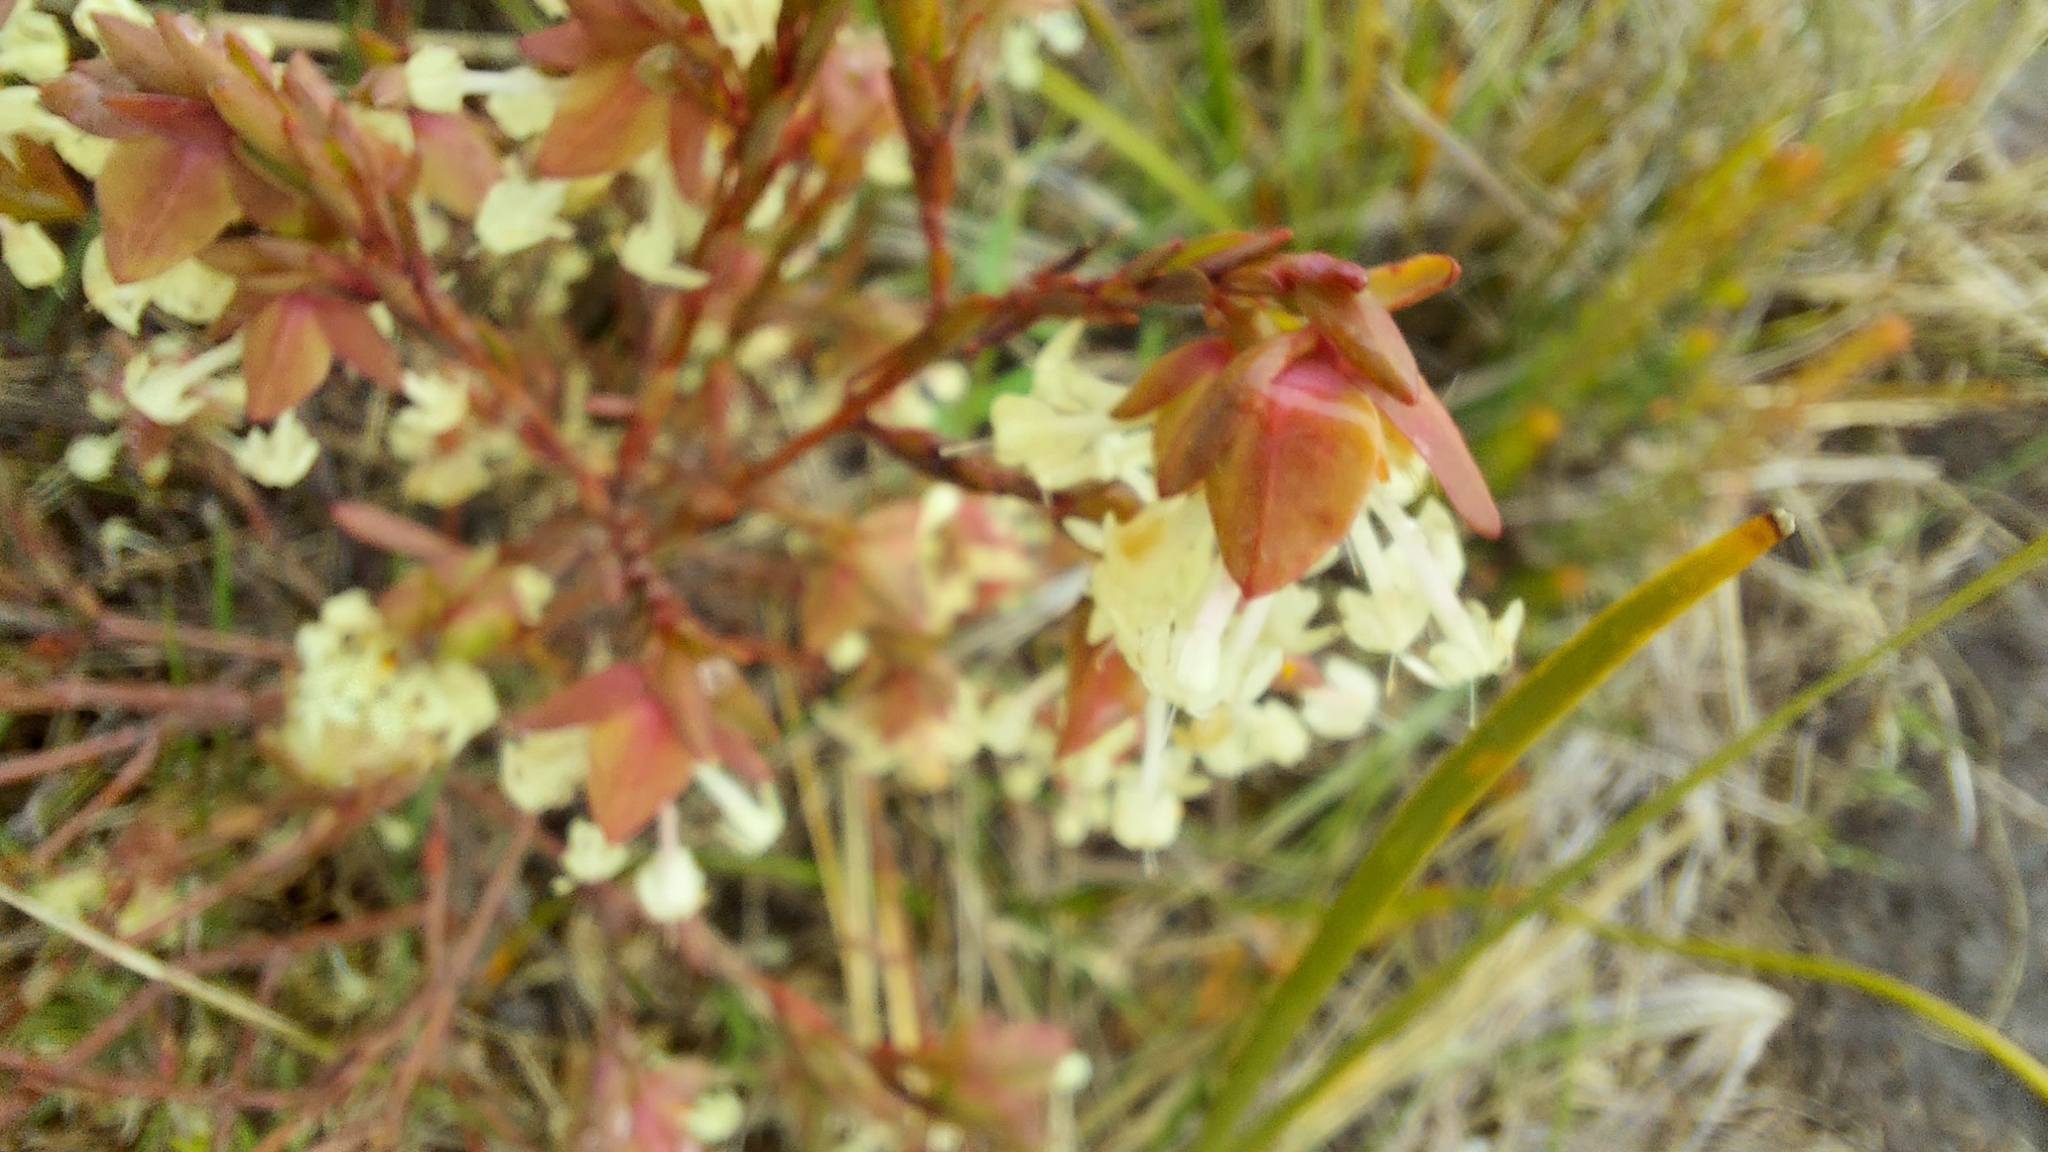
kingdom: Plantae
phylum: Tracheophyta
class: Magnoliopsida
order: Malvales
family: Thymelaeaceae
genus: Pimelea
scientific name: Pimelea linifolia
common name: Queen-of-the-bush
